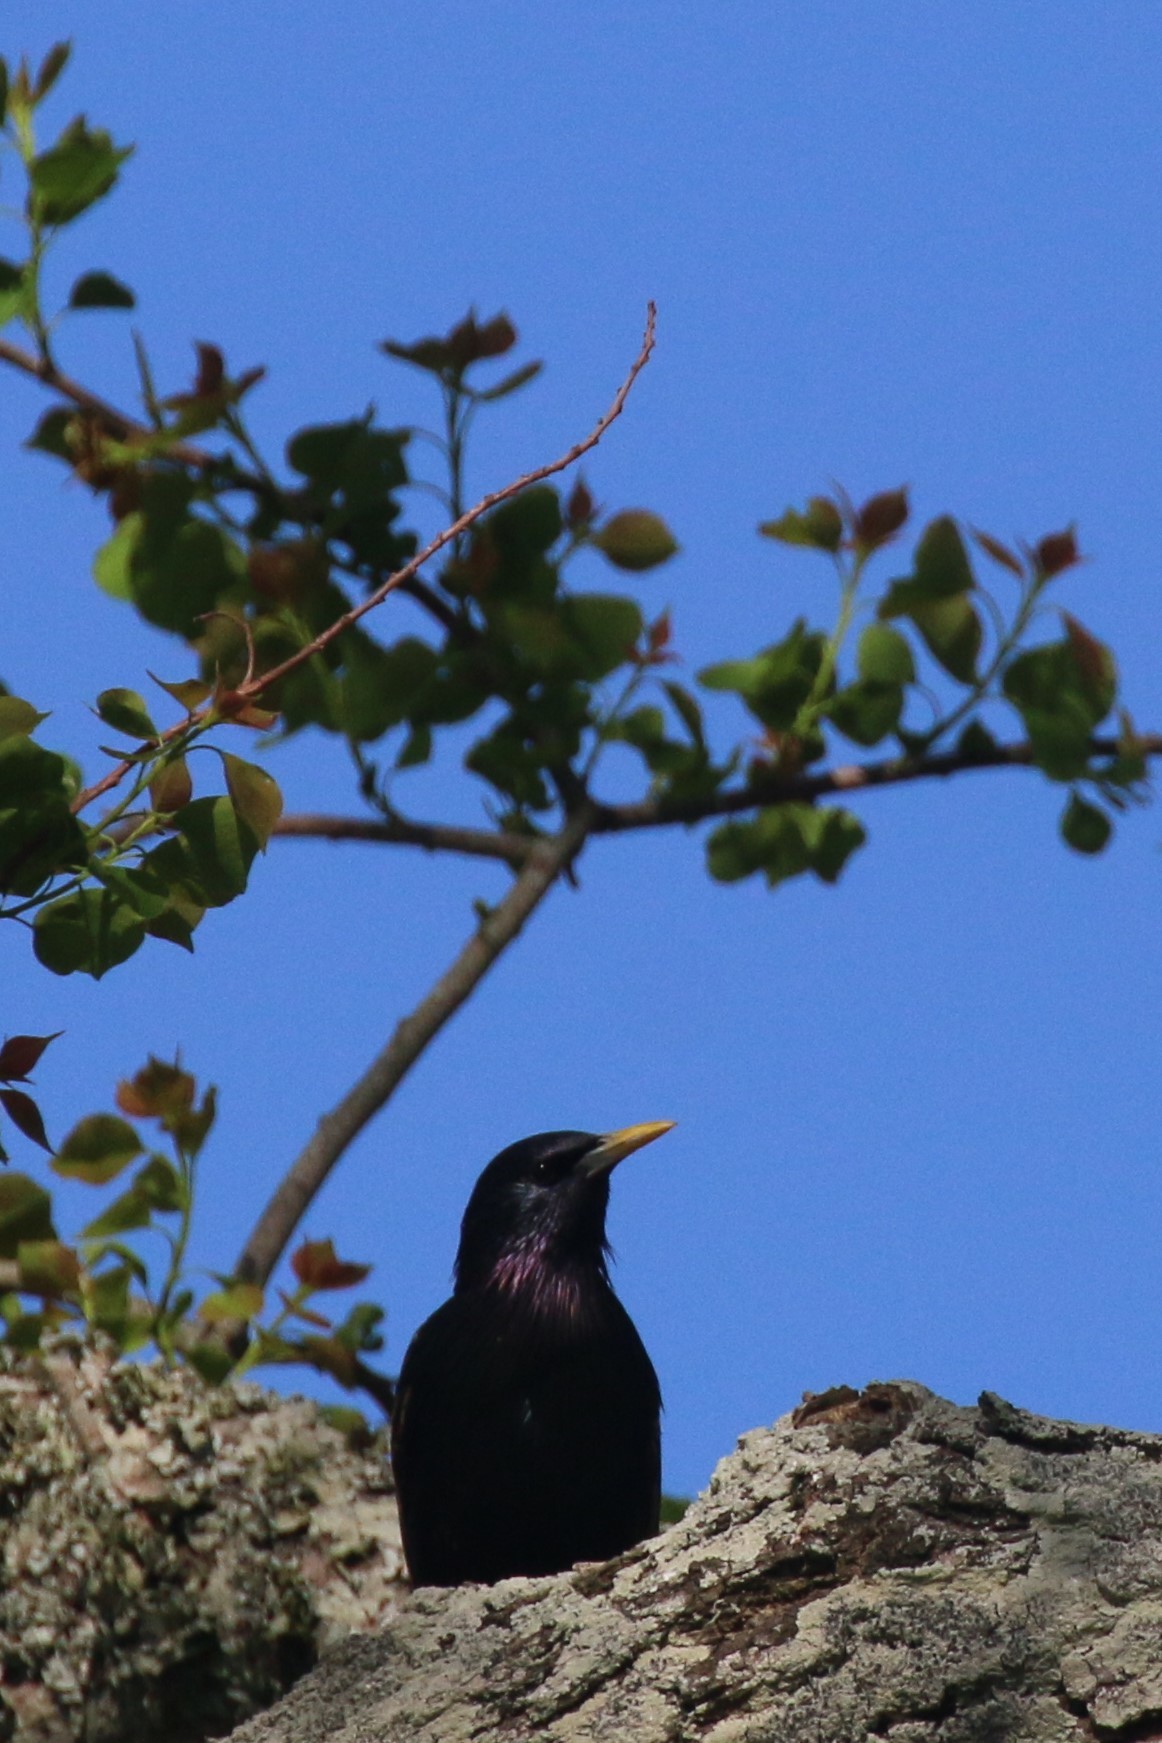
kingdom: Animalia
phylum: Chordata
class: Aves
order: Passeriformes
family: Sturnidae
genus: Sturnus
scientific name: Sturnus vulgaris
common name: Common starling
